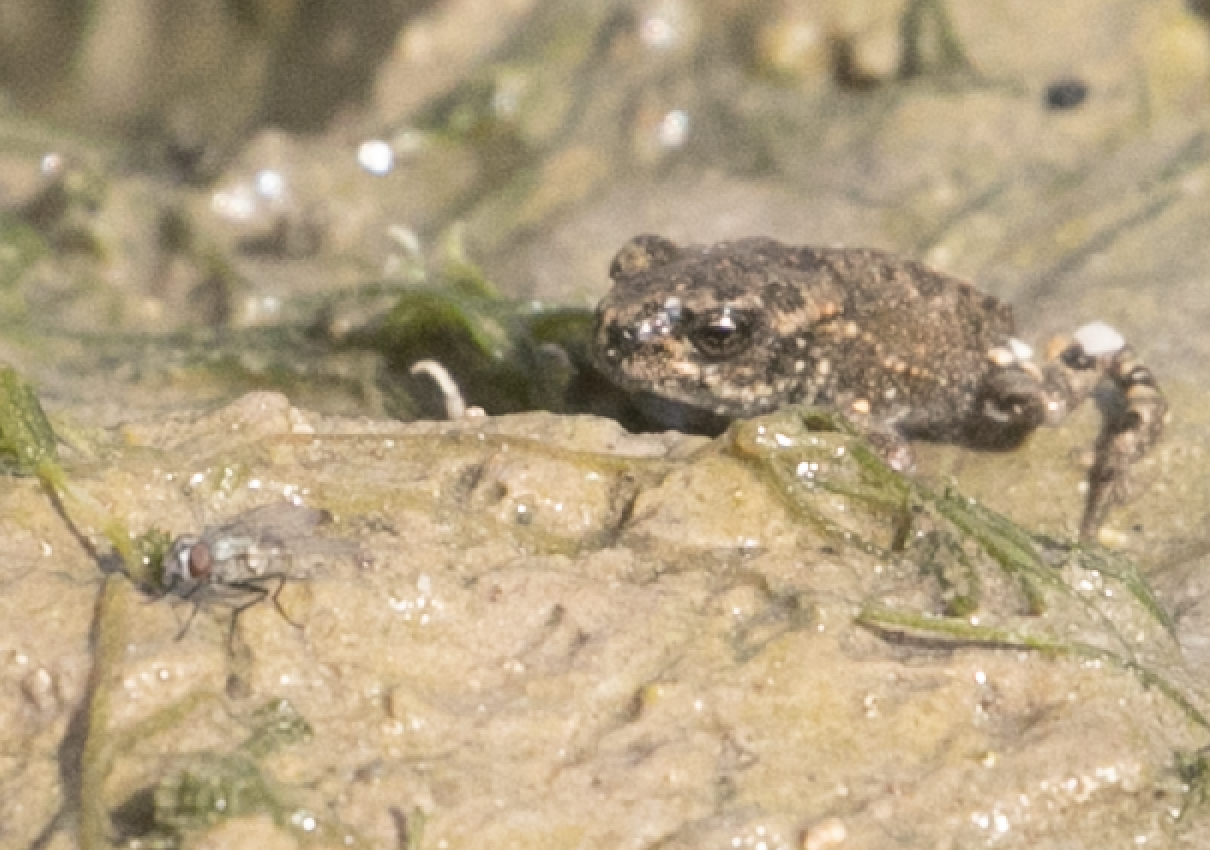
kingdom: Animalia
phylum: Chordata
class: Amphibia
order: Anura
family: Bufonidae
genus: Bufotes
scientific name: Bufotes boulengeri
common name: African green toad
